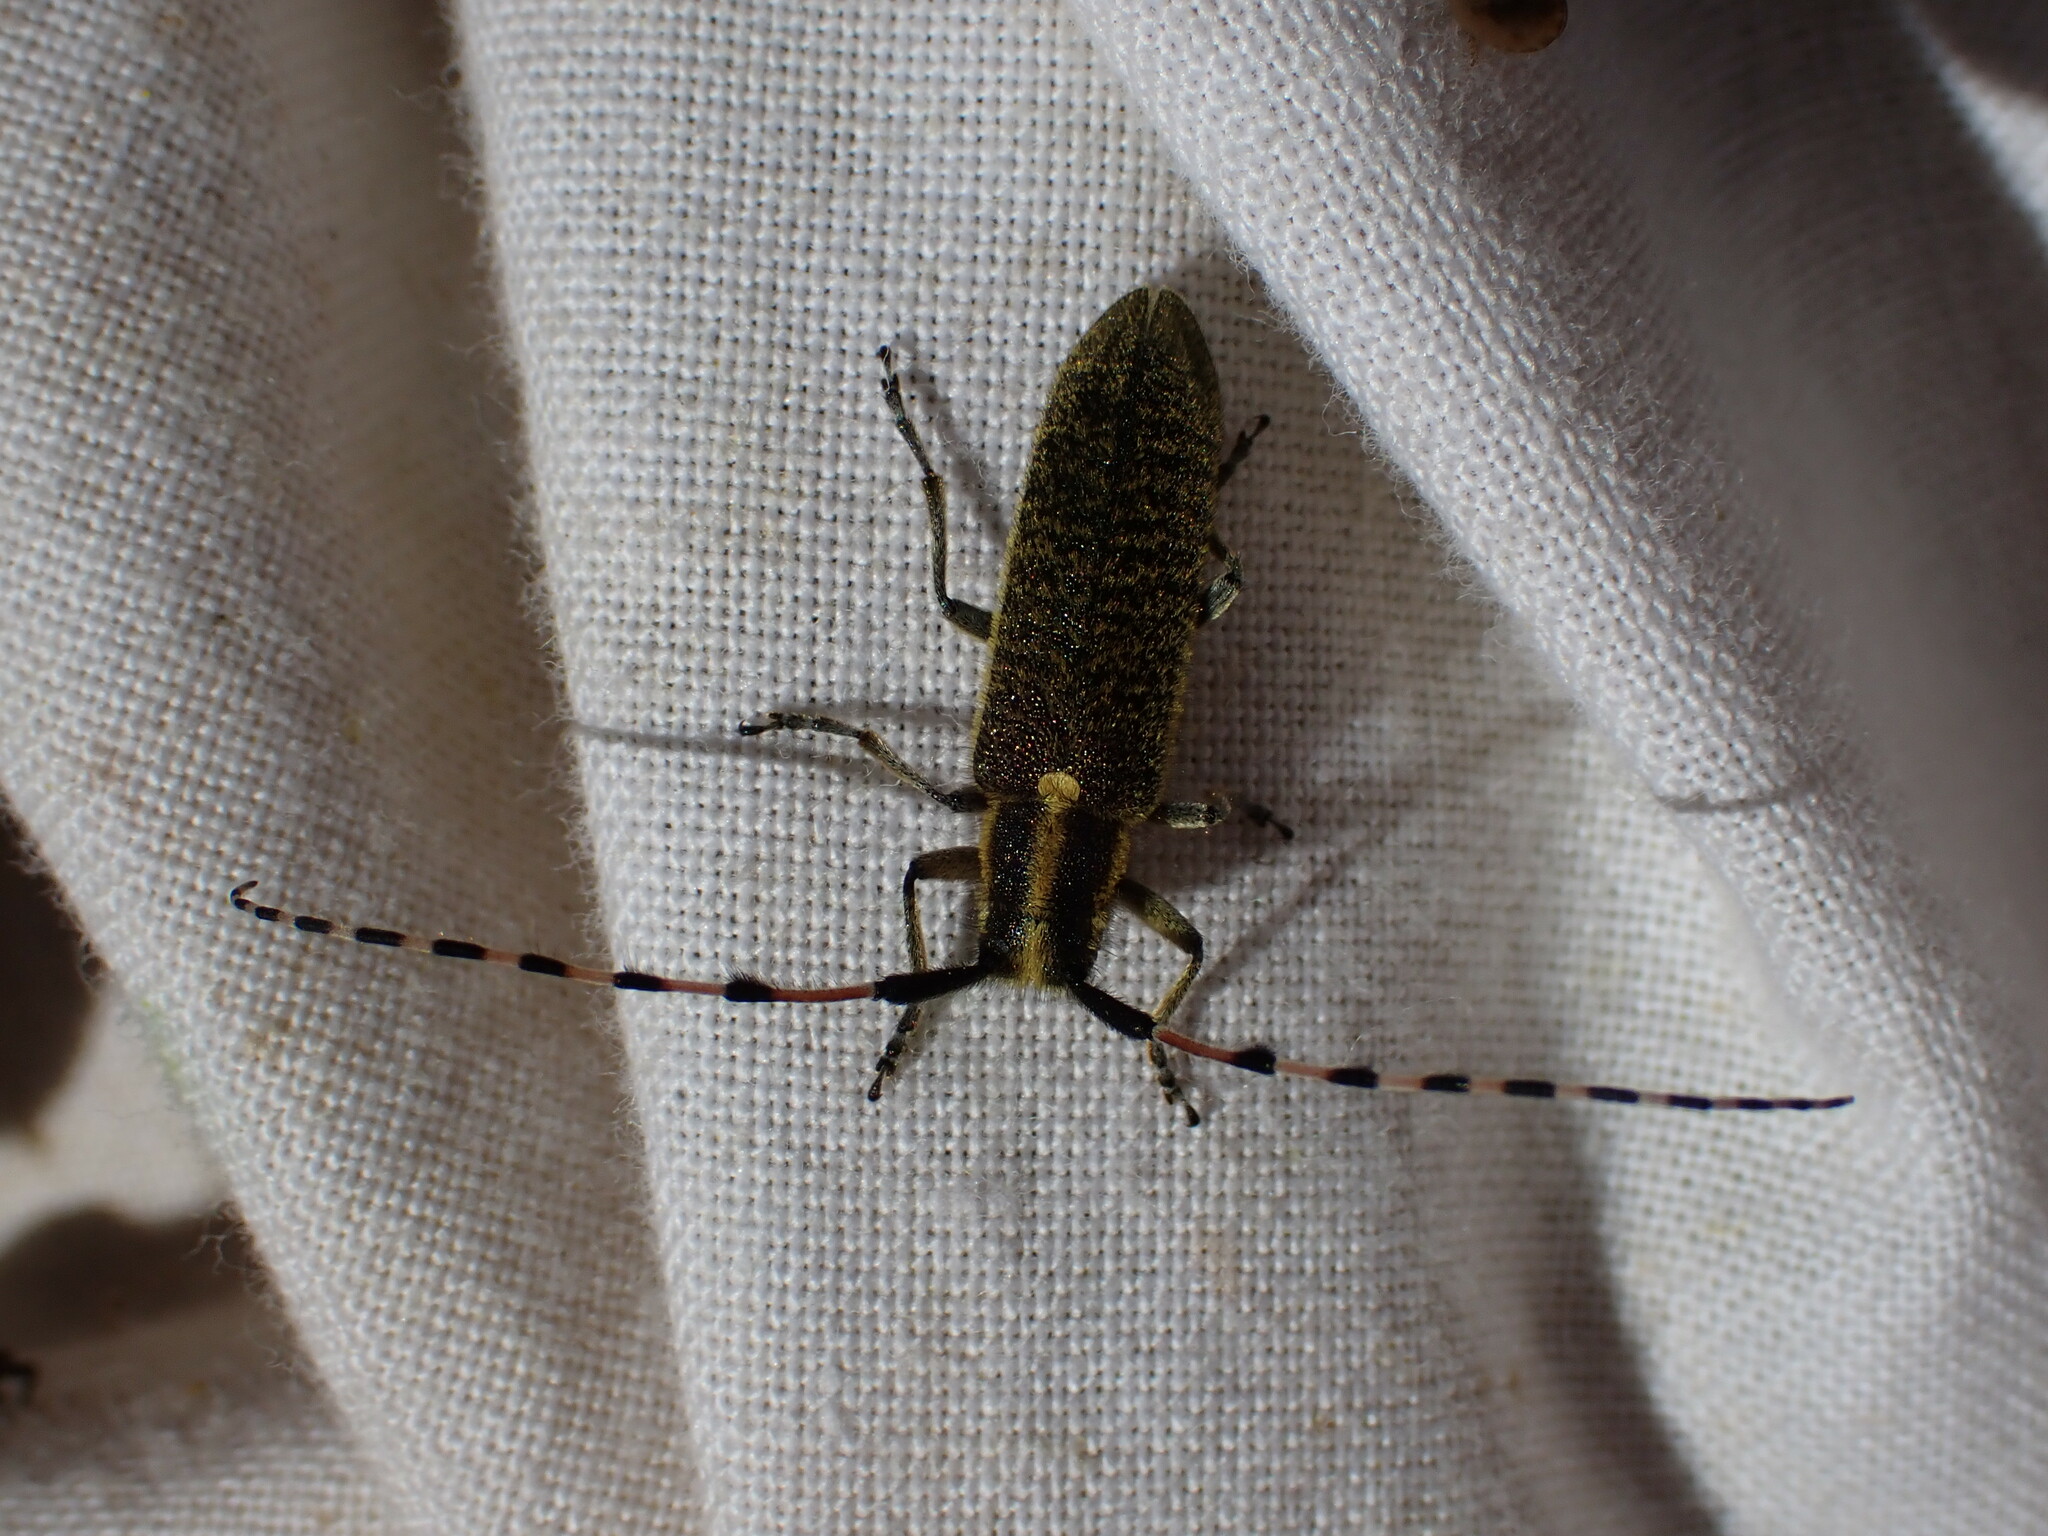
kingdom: Animalia
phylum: Arthropoda
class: Insecta
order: Coleoptera
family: Cerambycidae
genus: Agapanthia
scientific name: Agapanthia dahlii
